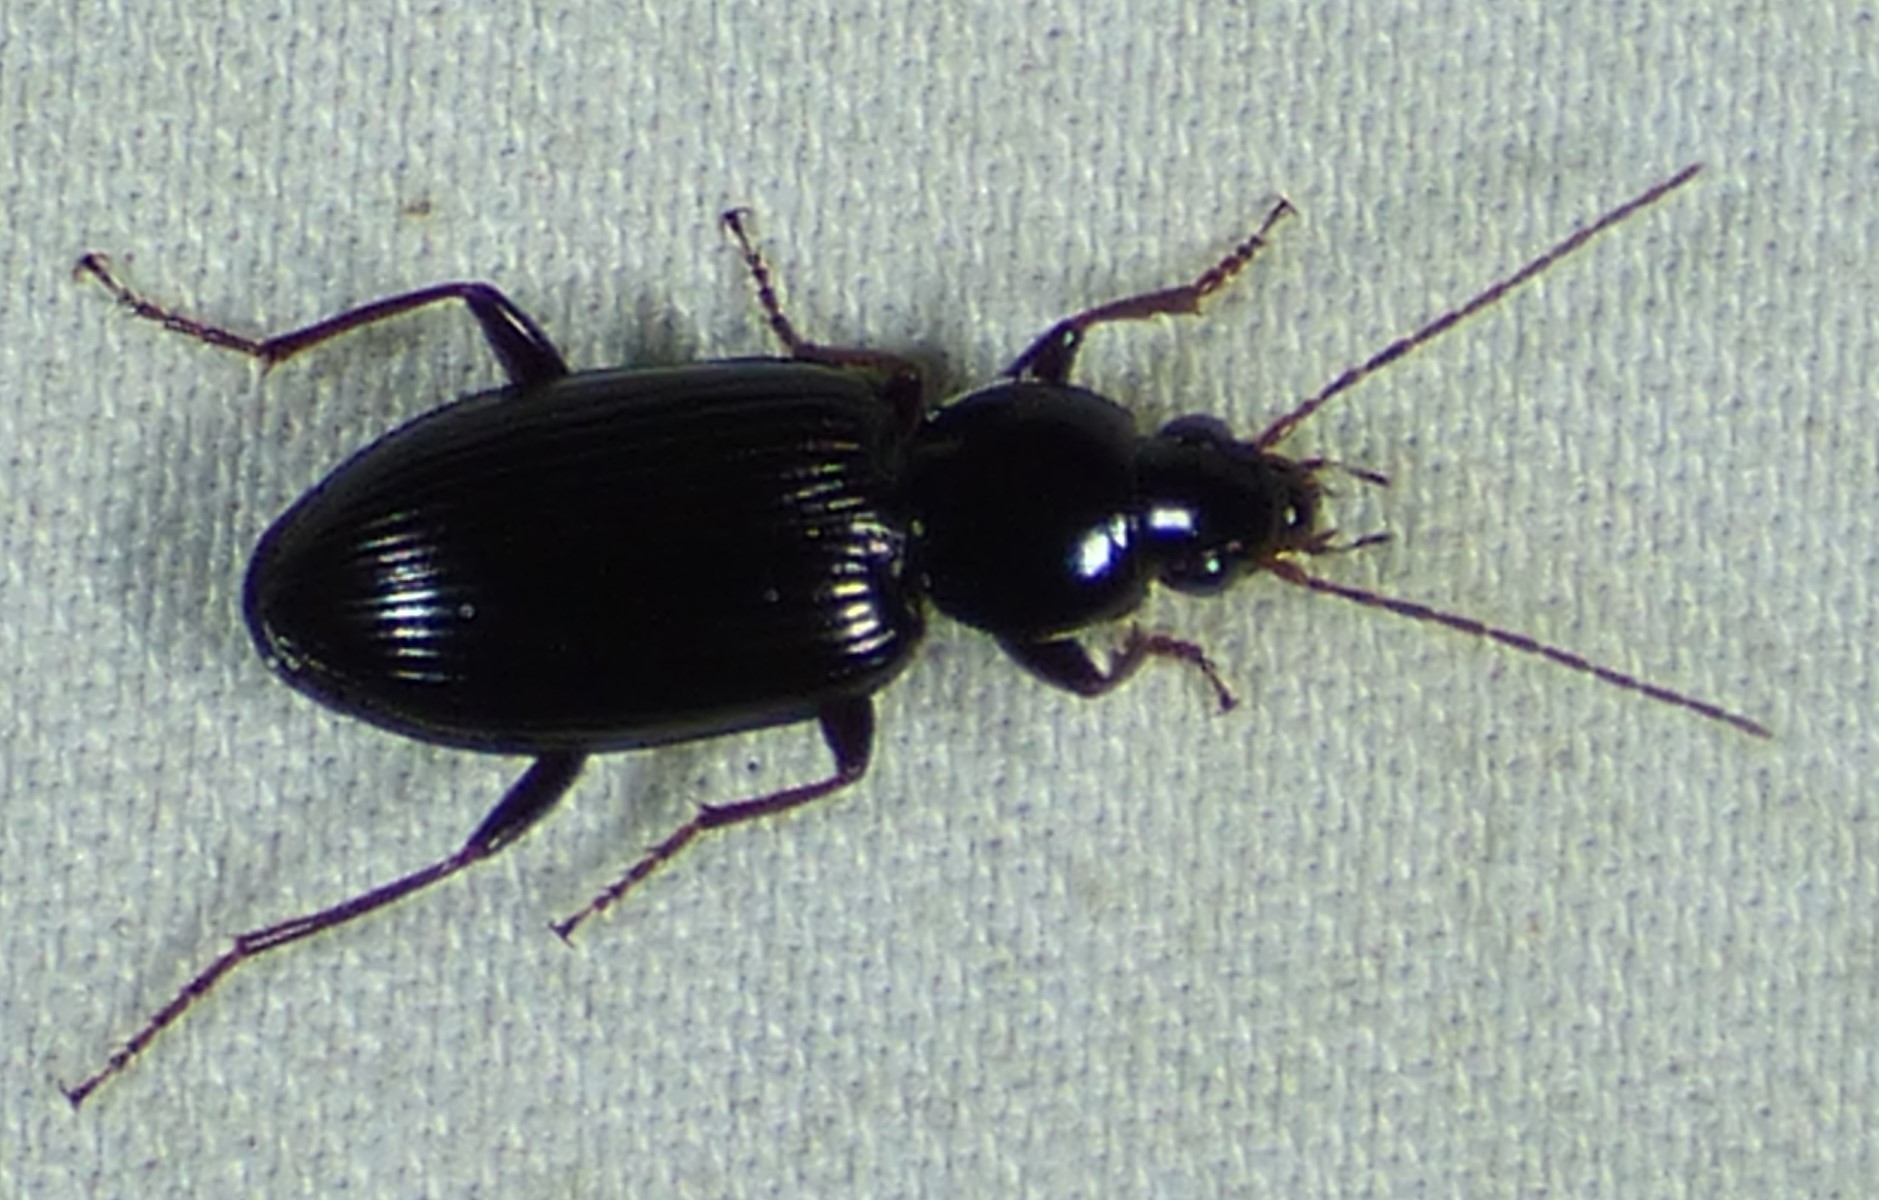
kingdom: Animalia
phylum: Arthropoda
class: Insecta
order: Coleoptera
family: Carabidae
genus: Agonum
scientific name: Agonum punctiforme
